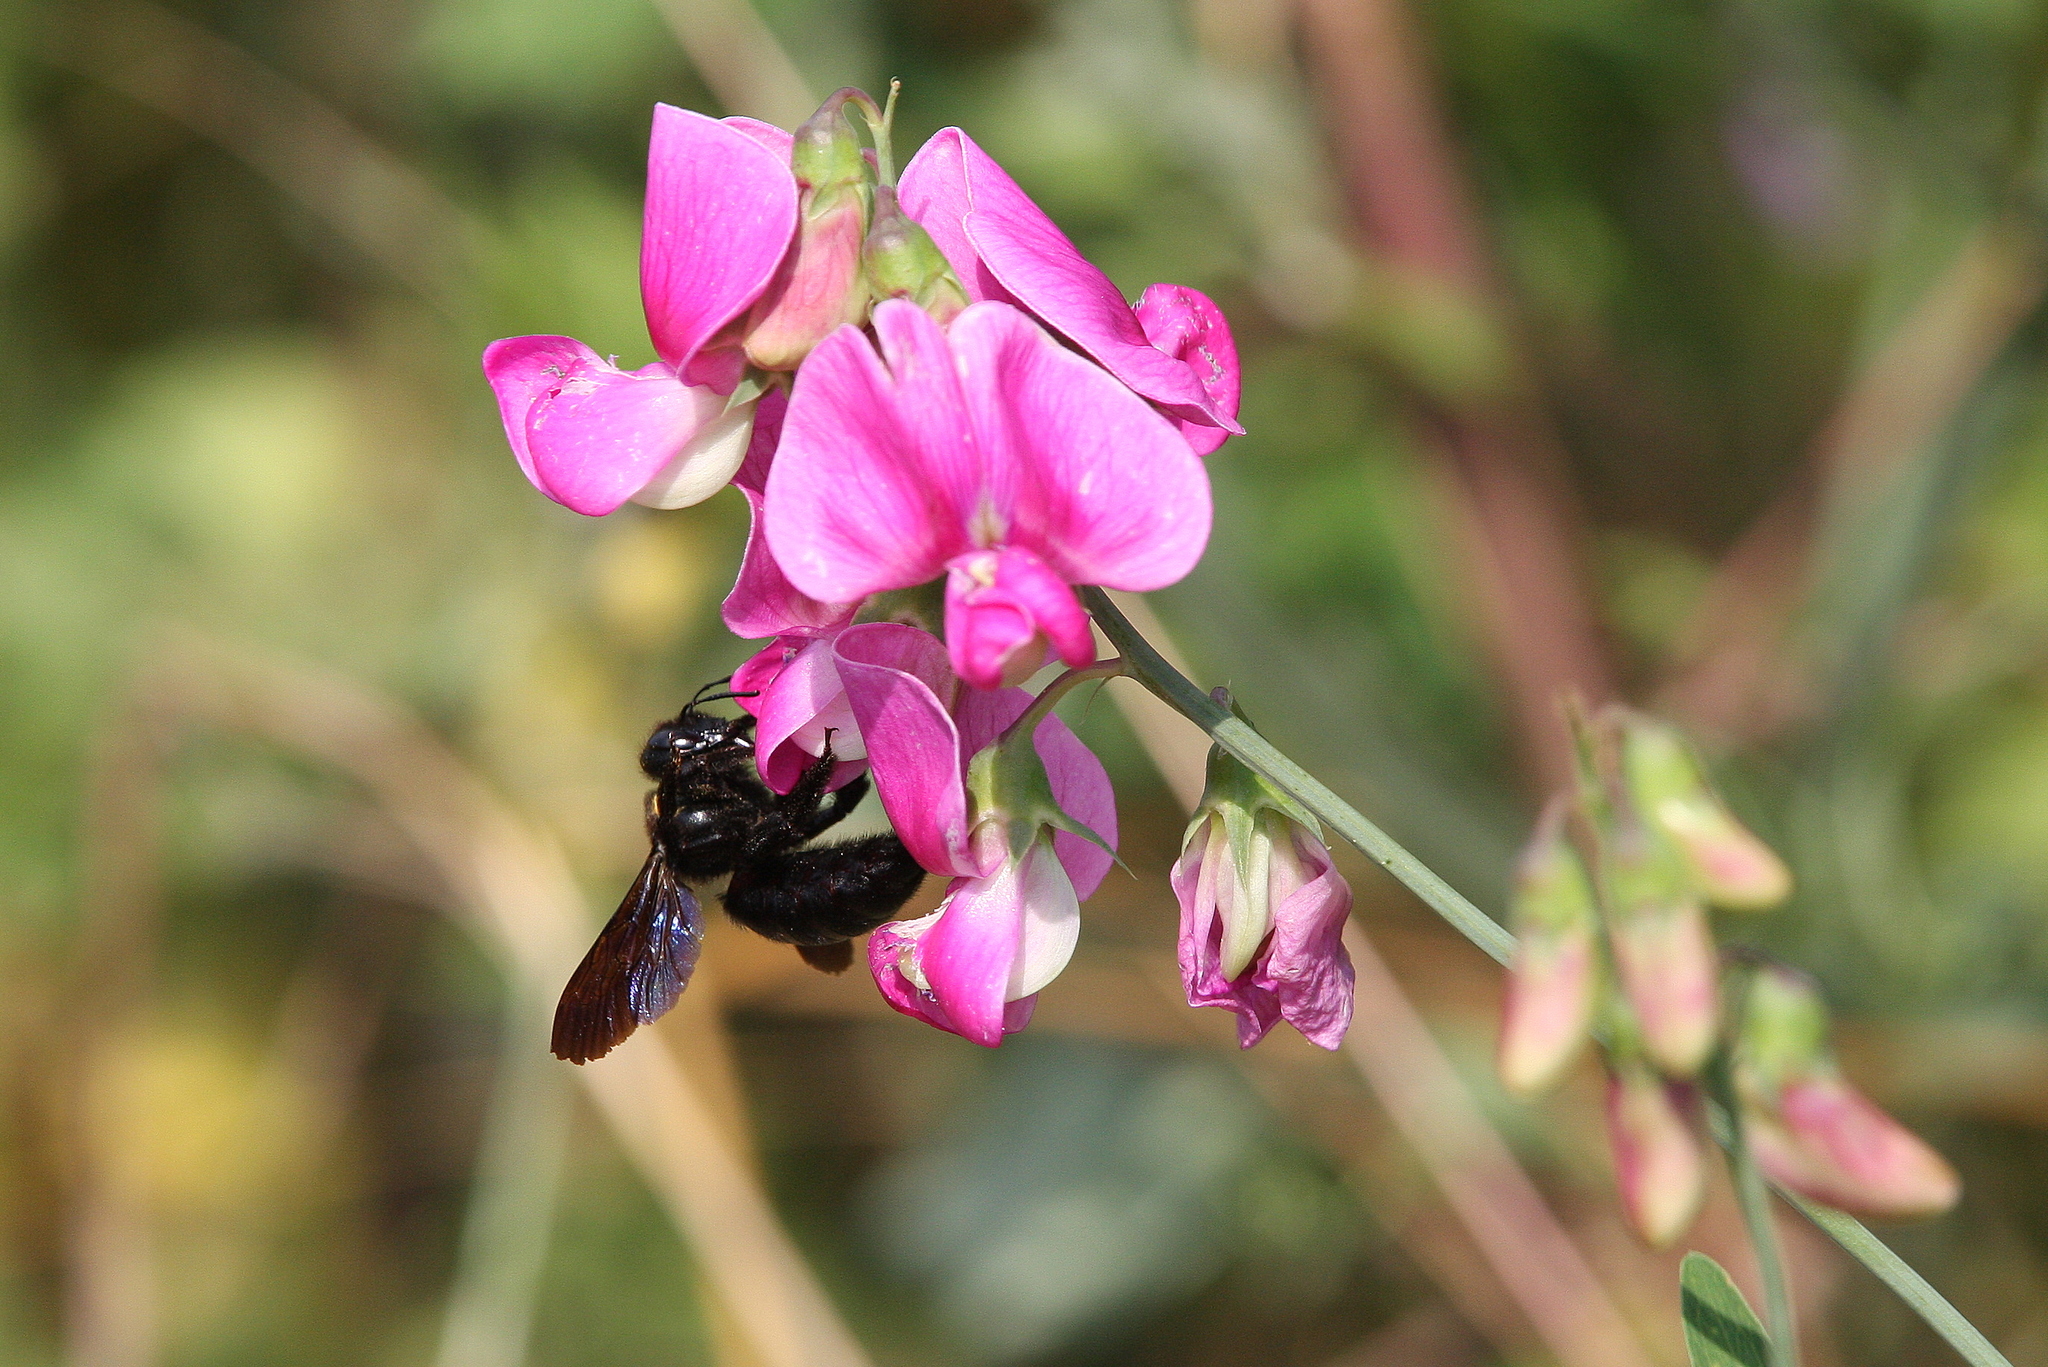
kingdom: Animalia
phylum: Arthropoda
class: Insecta
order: Hymenoptera
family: Apidae
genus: Xylocopa
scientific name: Xylocopa violacea
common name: Violet carpenter bee
